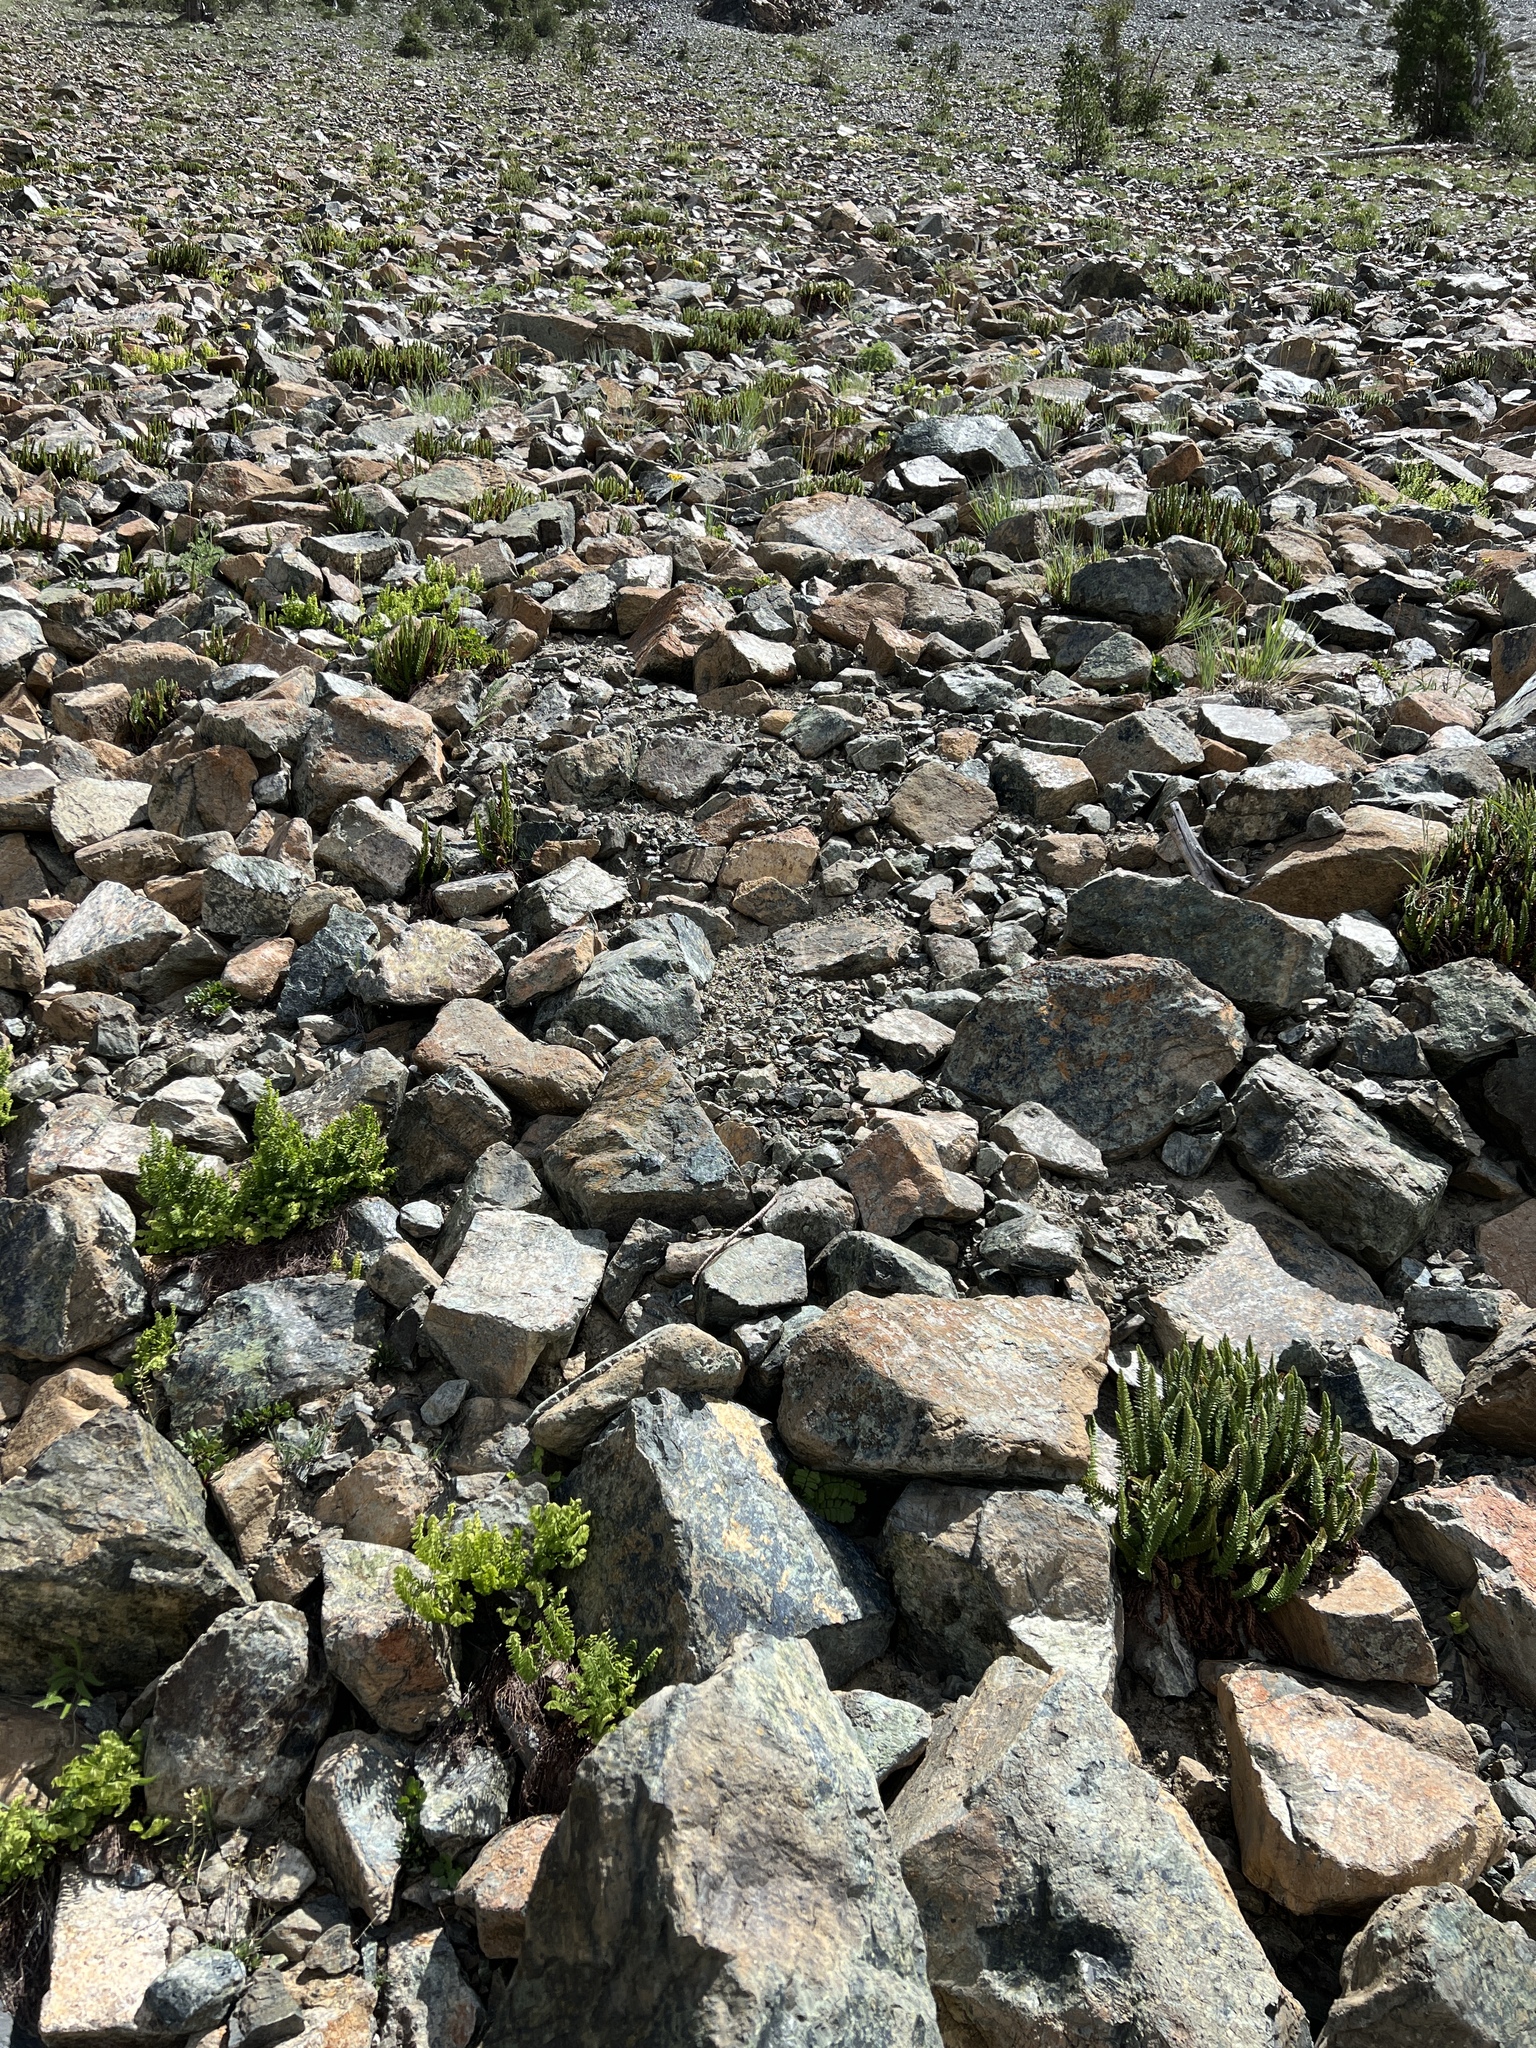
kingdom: Plantae
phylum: Tracheophyta
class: Polypodiopsida
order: Polypodiales
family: Dryopteridaceae
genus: Polystichum
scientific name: Polystichum lemmonii
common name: Lemmon's holly fern
